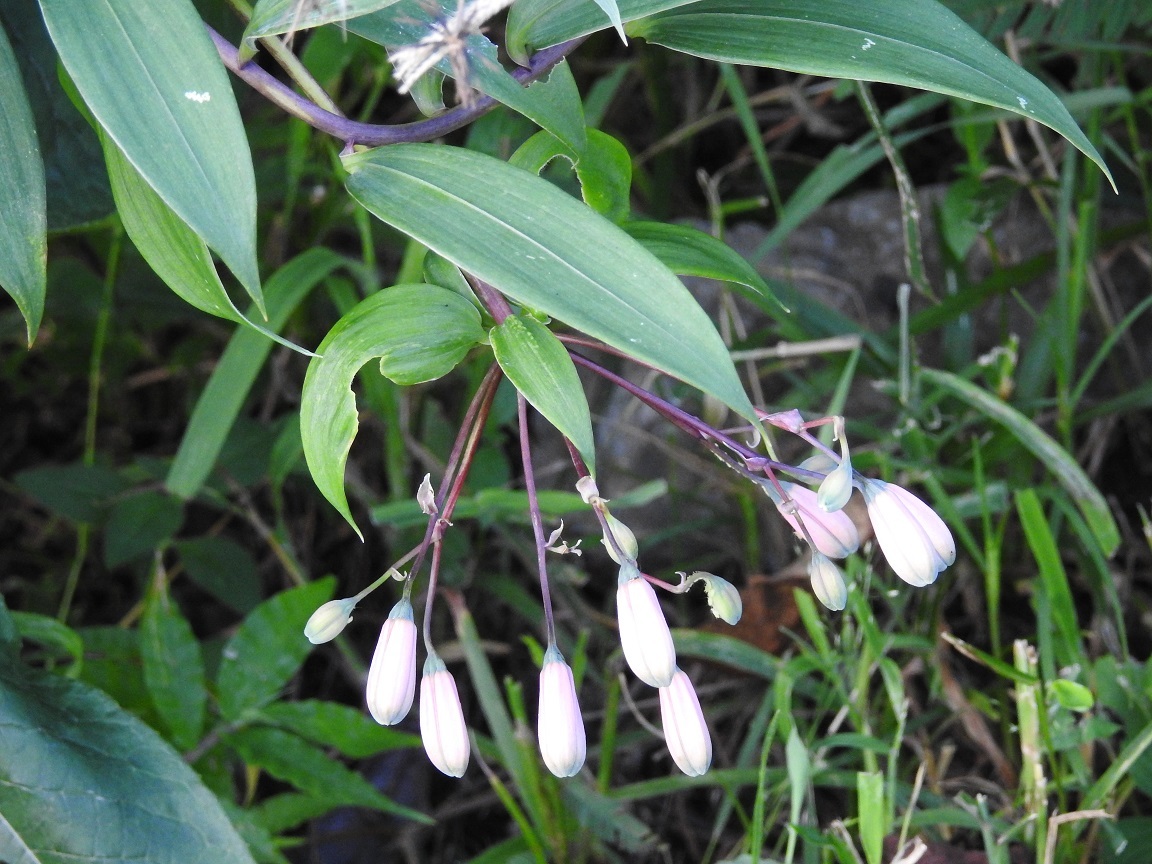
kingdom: Plantae
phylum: Tracheophyta
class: Liliopsida
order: Liliales
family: Alstroemeriaceae
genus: Bomarea
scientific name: Bomarea edulis
